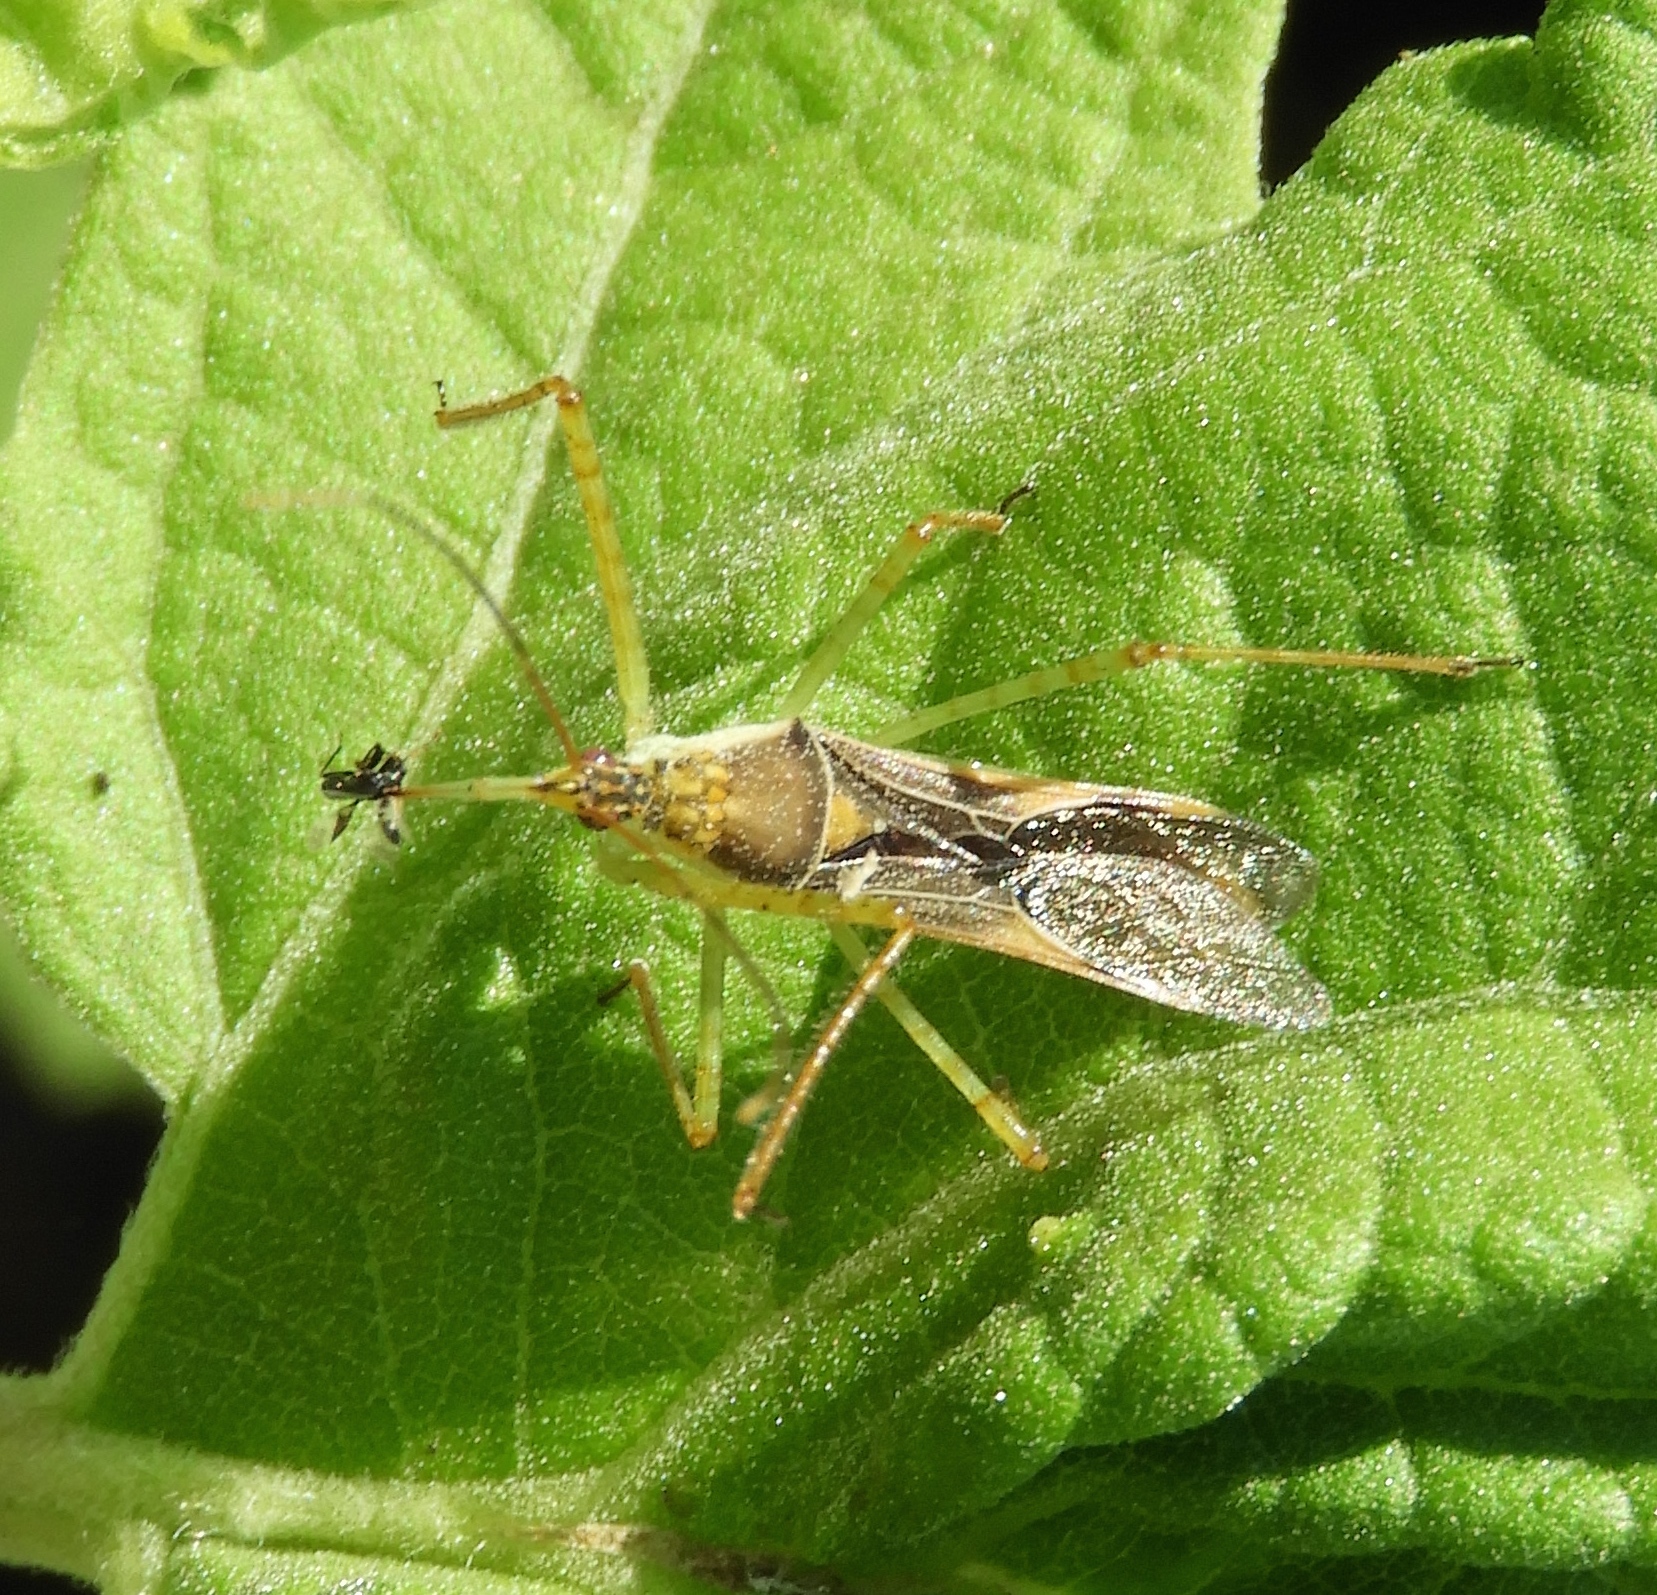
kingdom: Animalia
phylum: Arthropoda
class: Insecta
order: Hemiptera
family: Reduviidae
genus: Zelus
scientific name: Zelus
